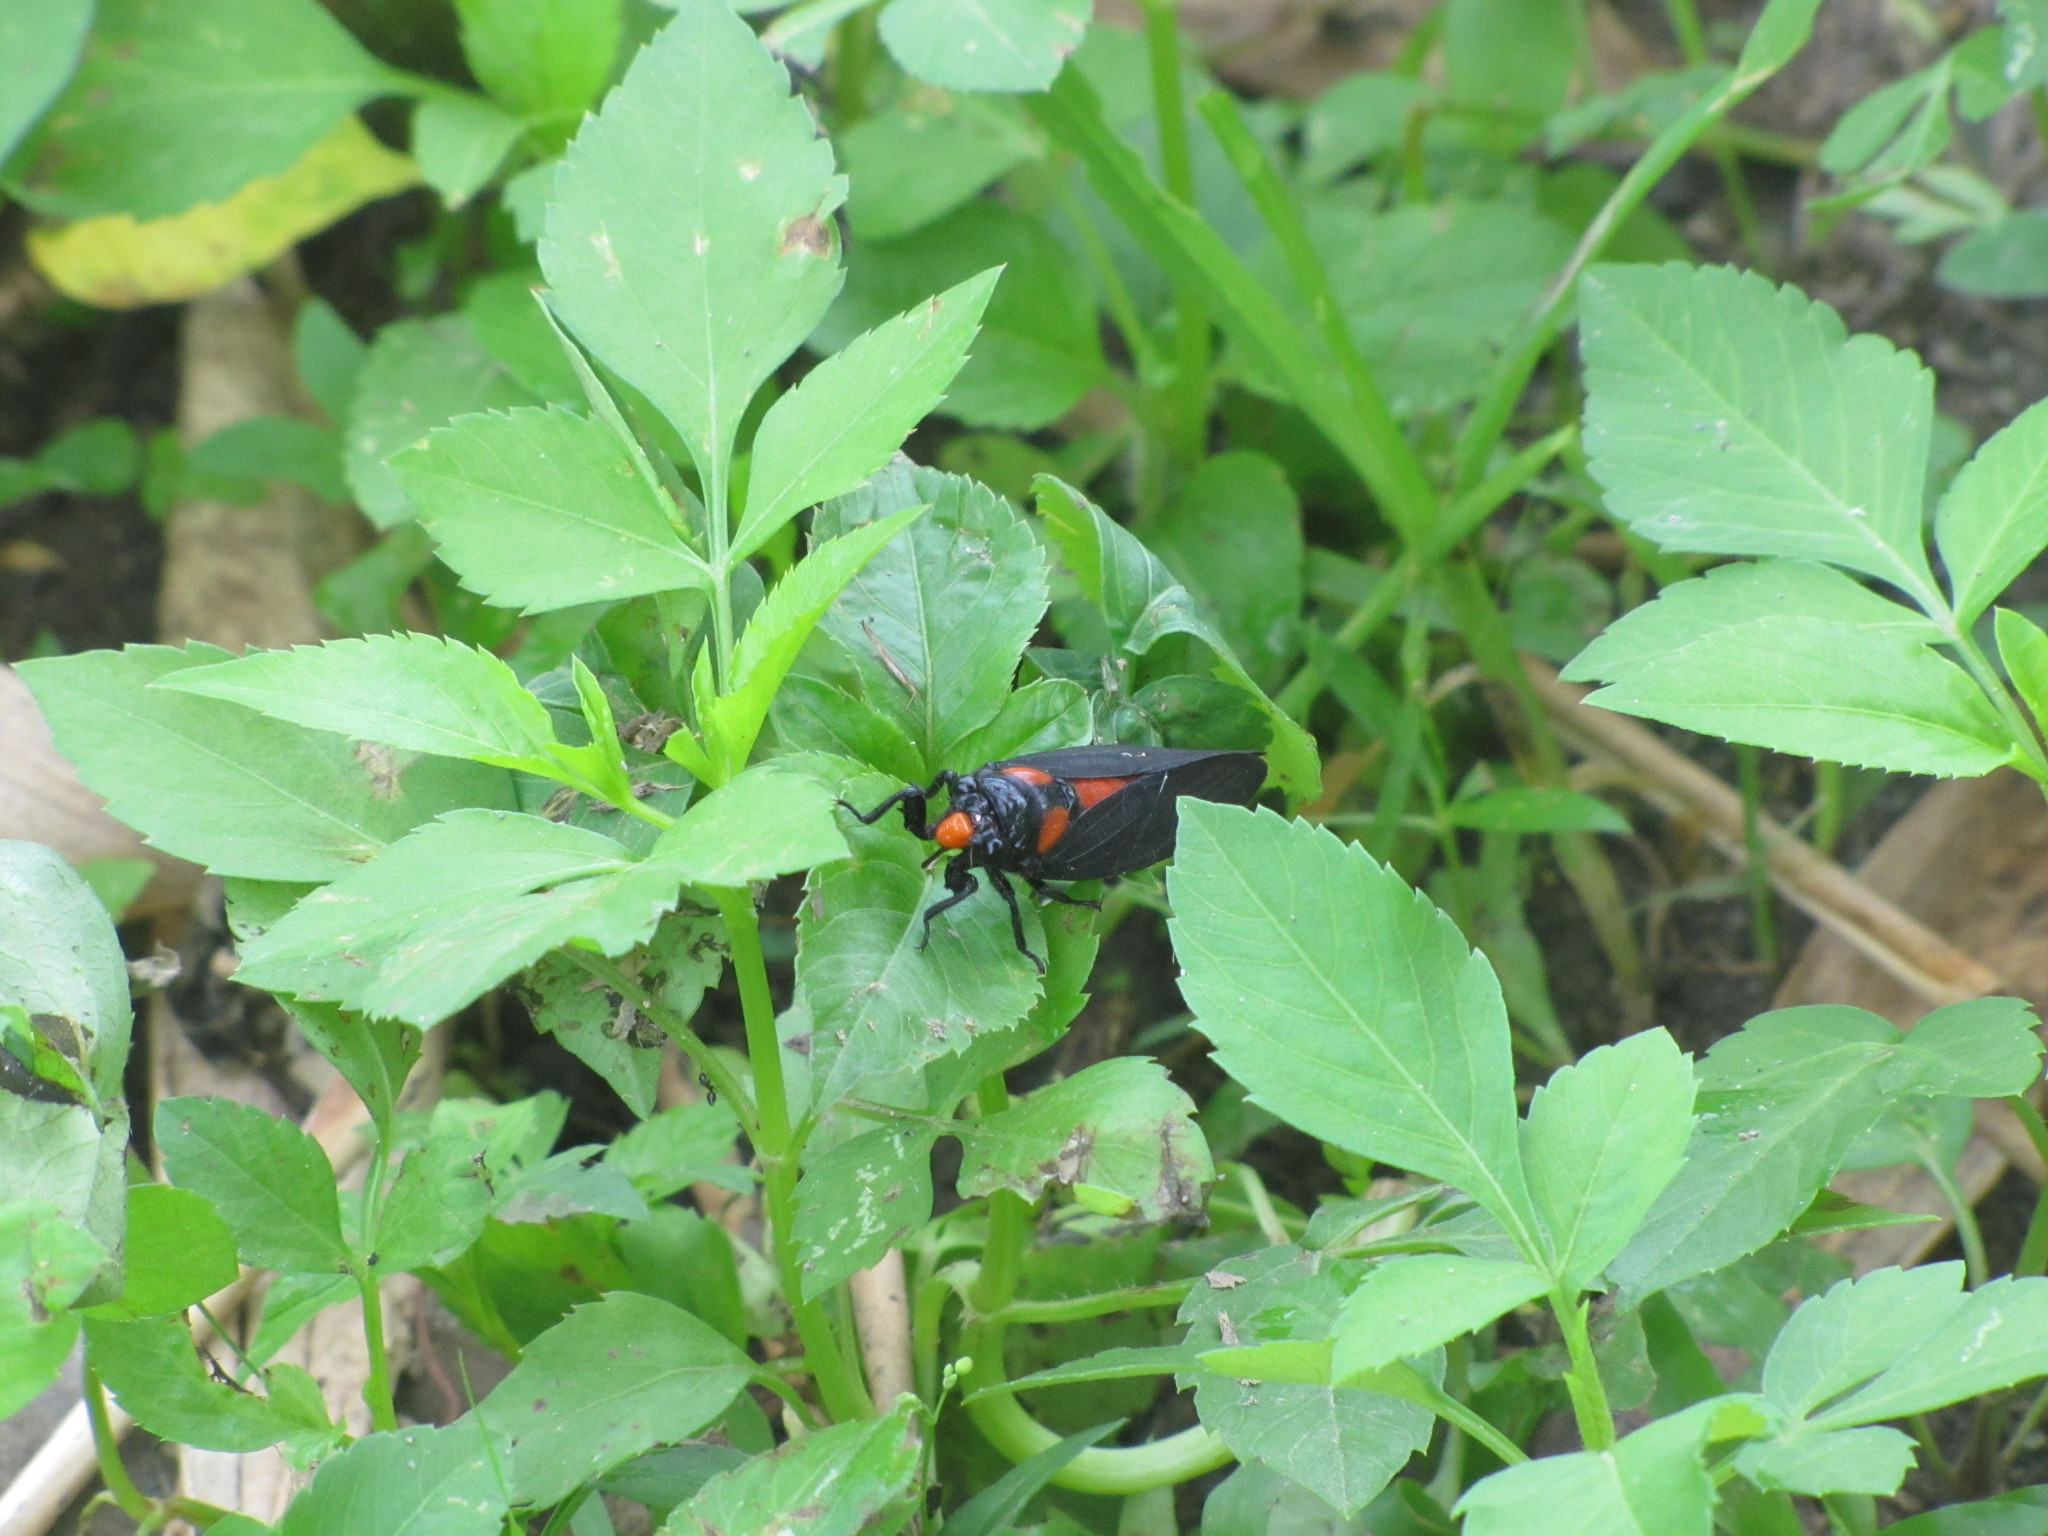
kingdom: Animalia
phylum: Arthropoda
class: Insecta
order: Hemiptera
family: Cicadidae
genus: Huechys
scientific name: Huechys sanguinea
